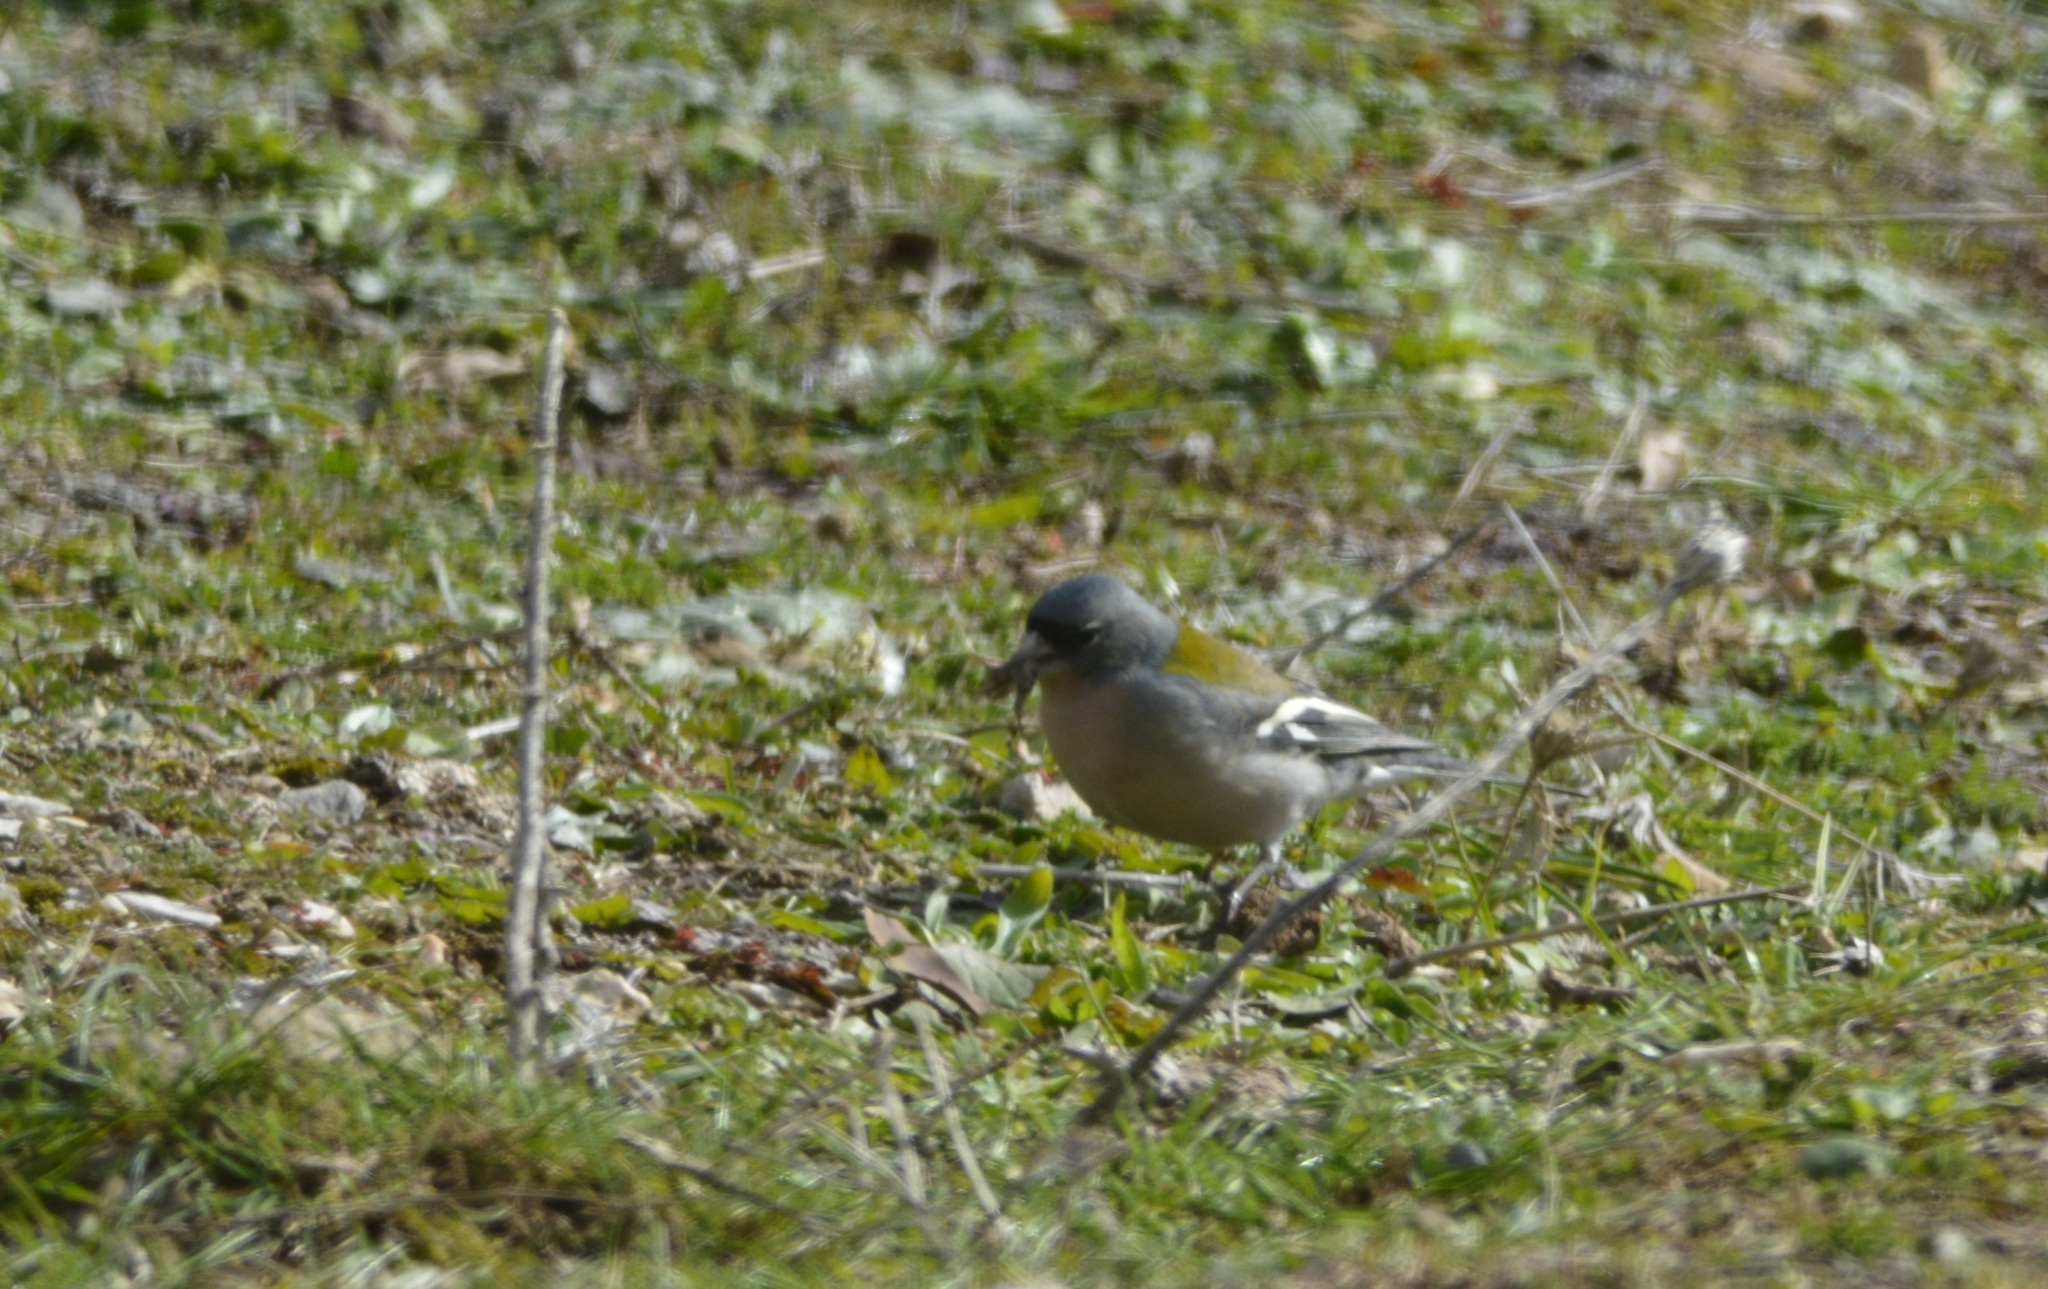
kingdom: Animalia
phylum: Chordata
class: Aves
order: Passeriformes
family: Fringillidae
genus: Fringilla
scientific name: Fringilla spodiogenys
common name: African chaffinch
